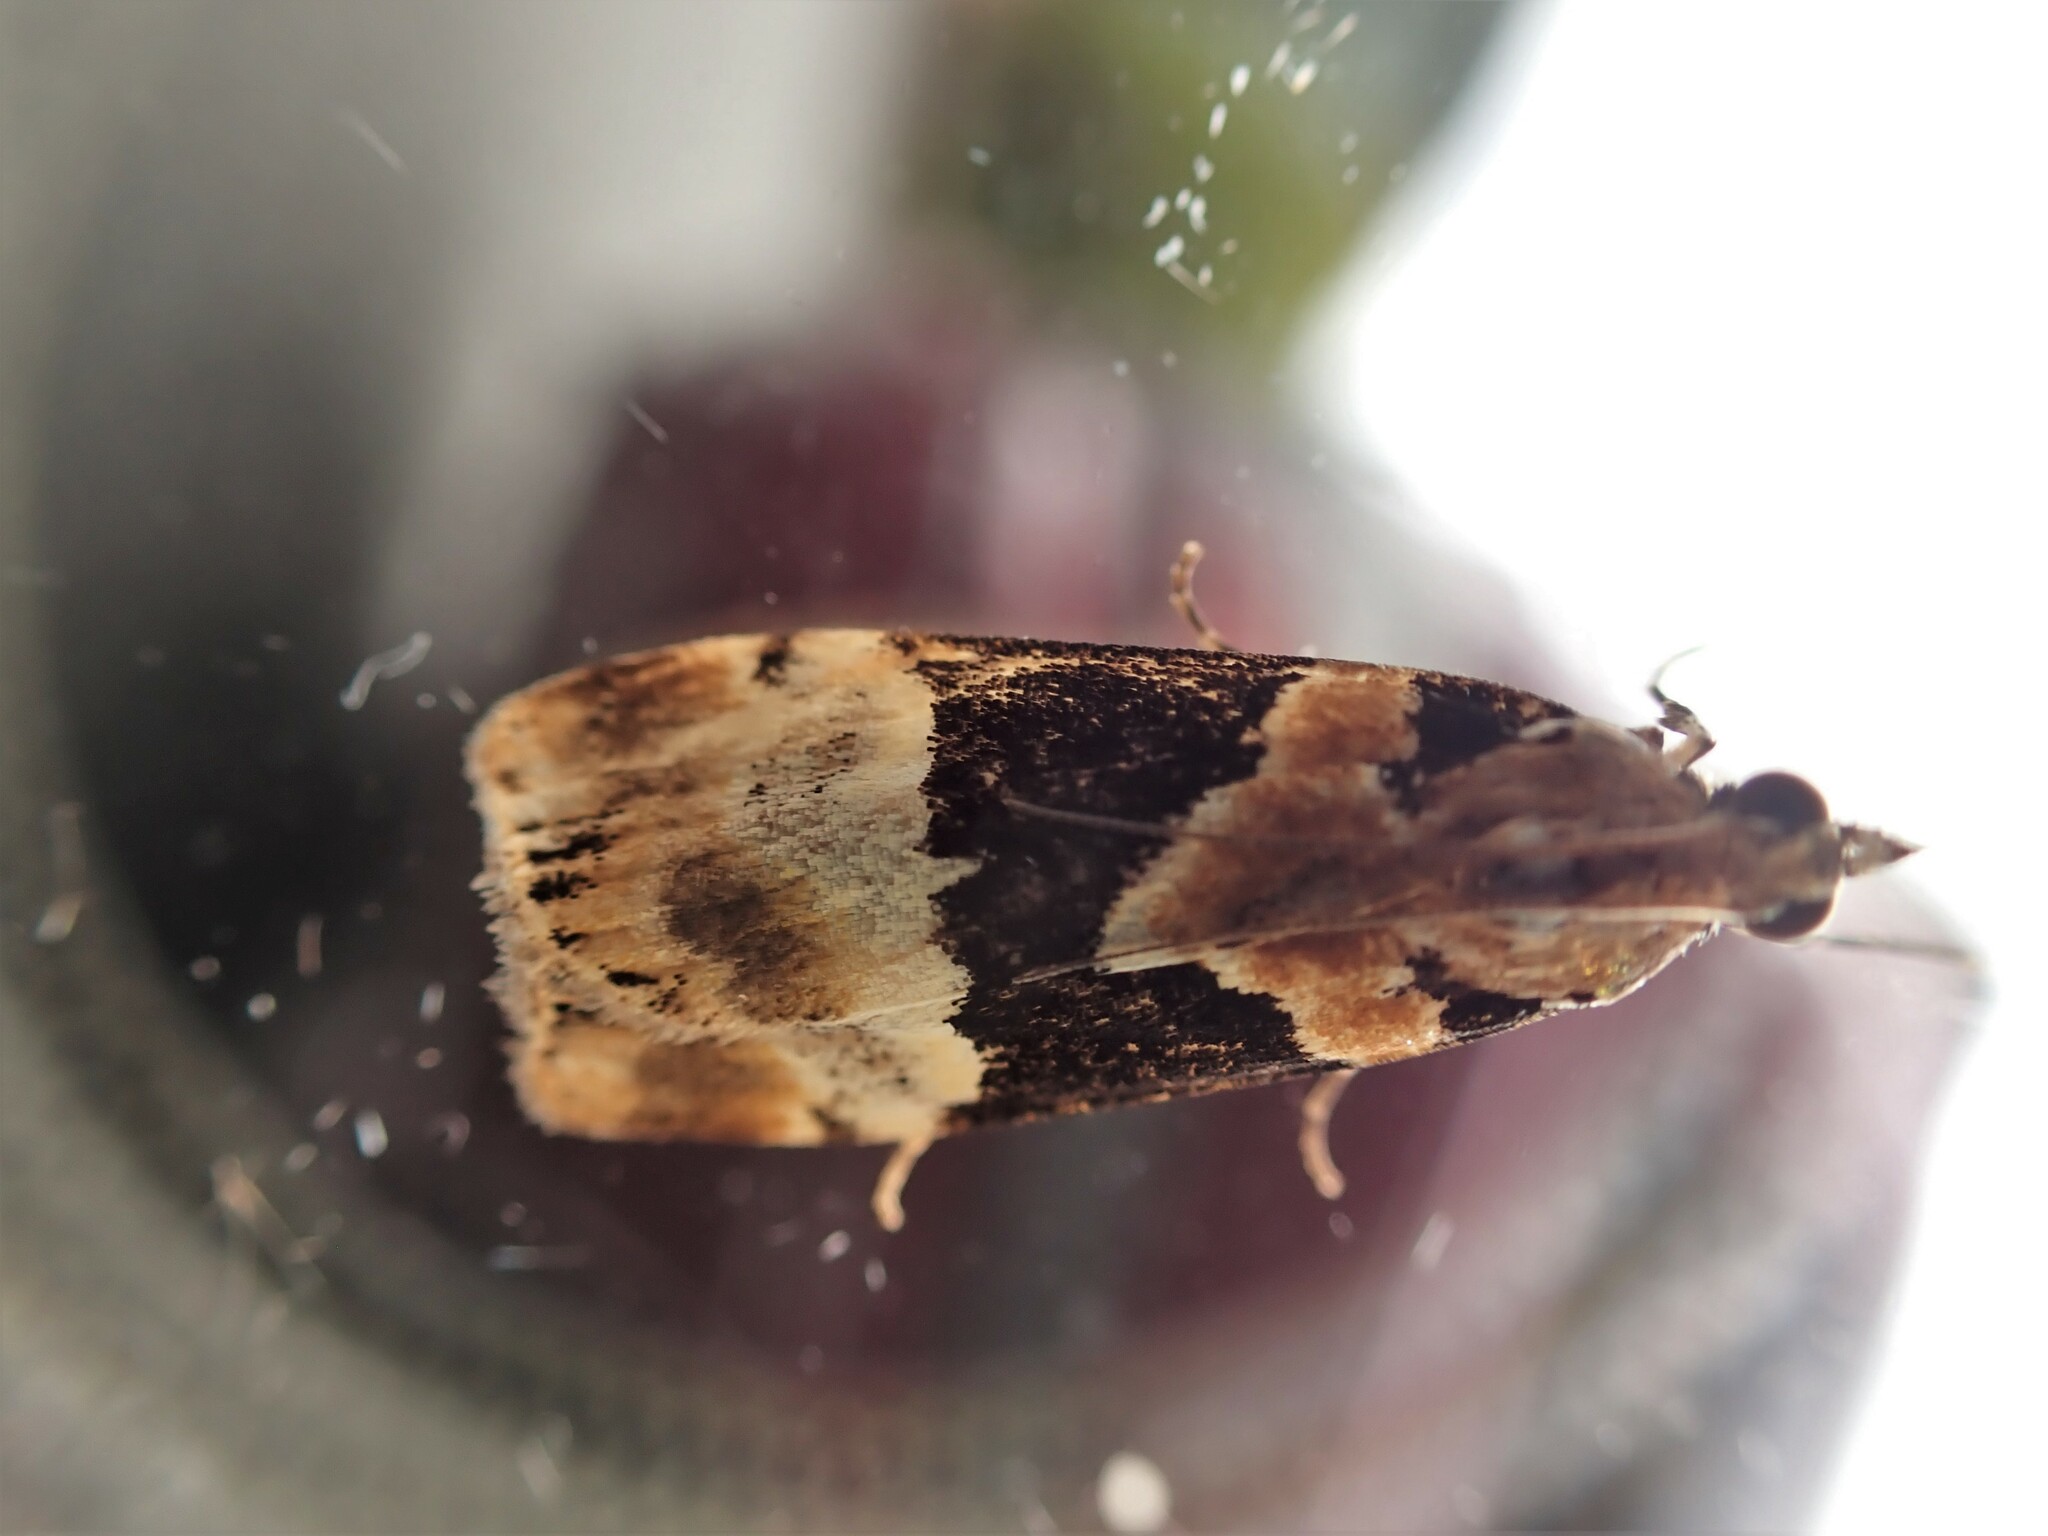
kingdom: Animalia
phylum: Arthropoda
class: Insecta
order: Lepidoptera
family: Crambidae
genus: Eudonia
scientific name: Eudonia aspidota
